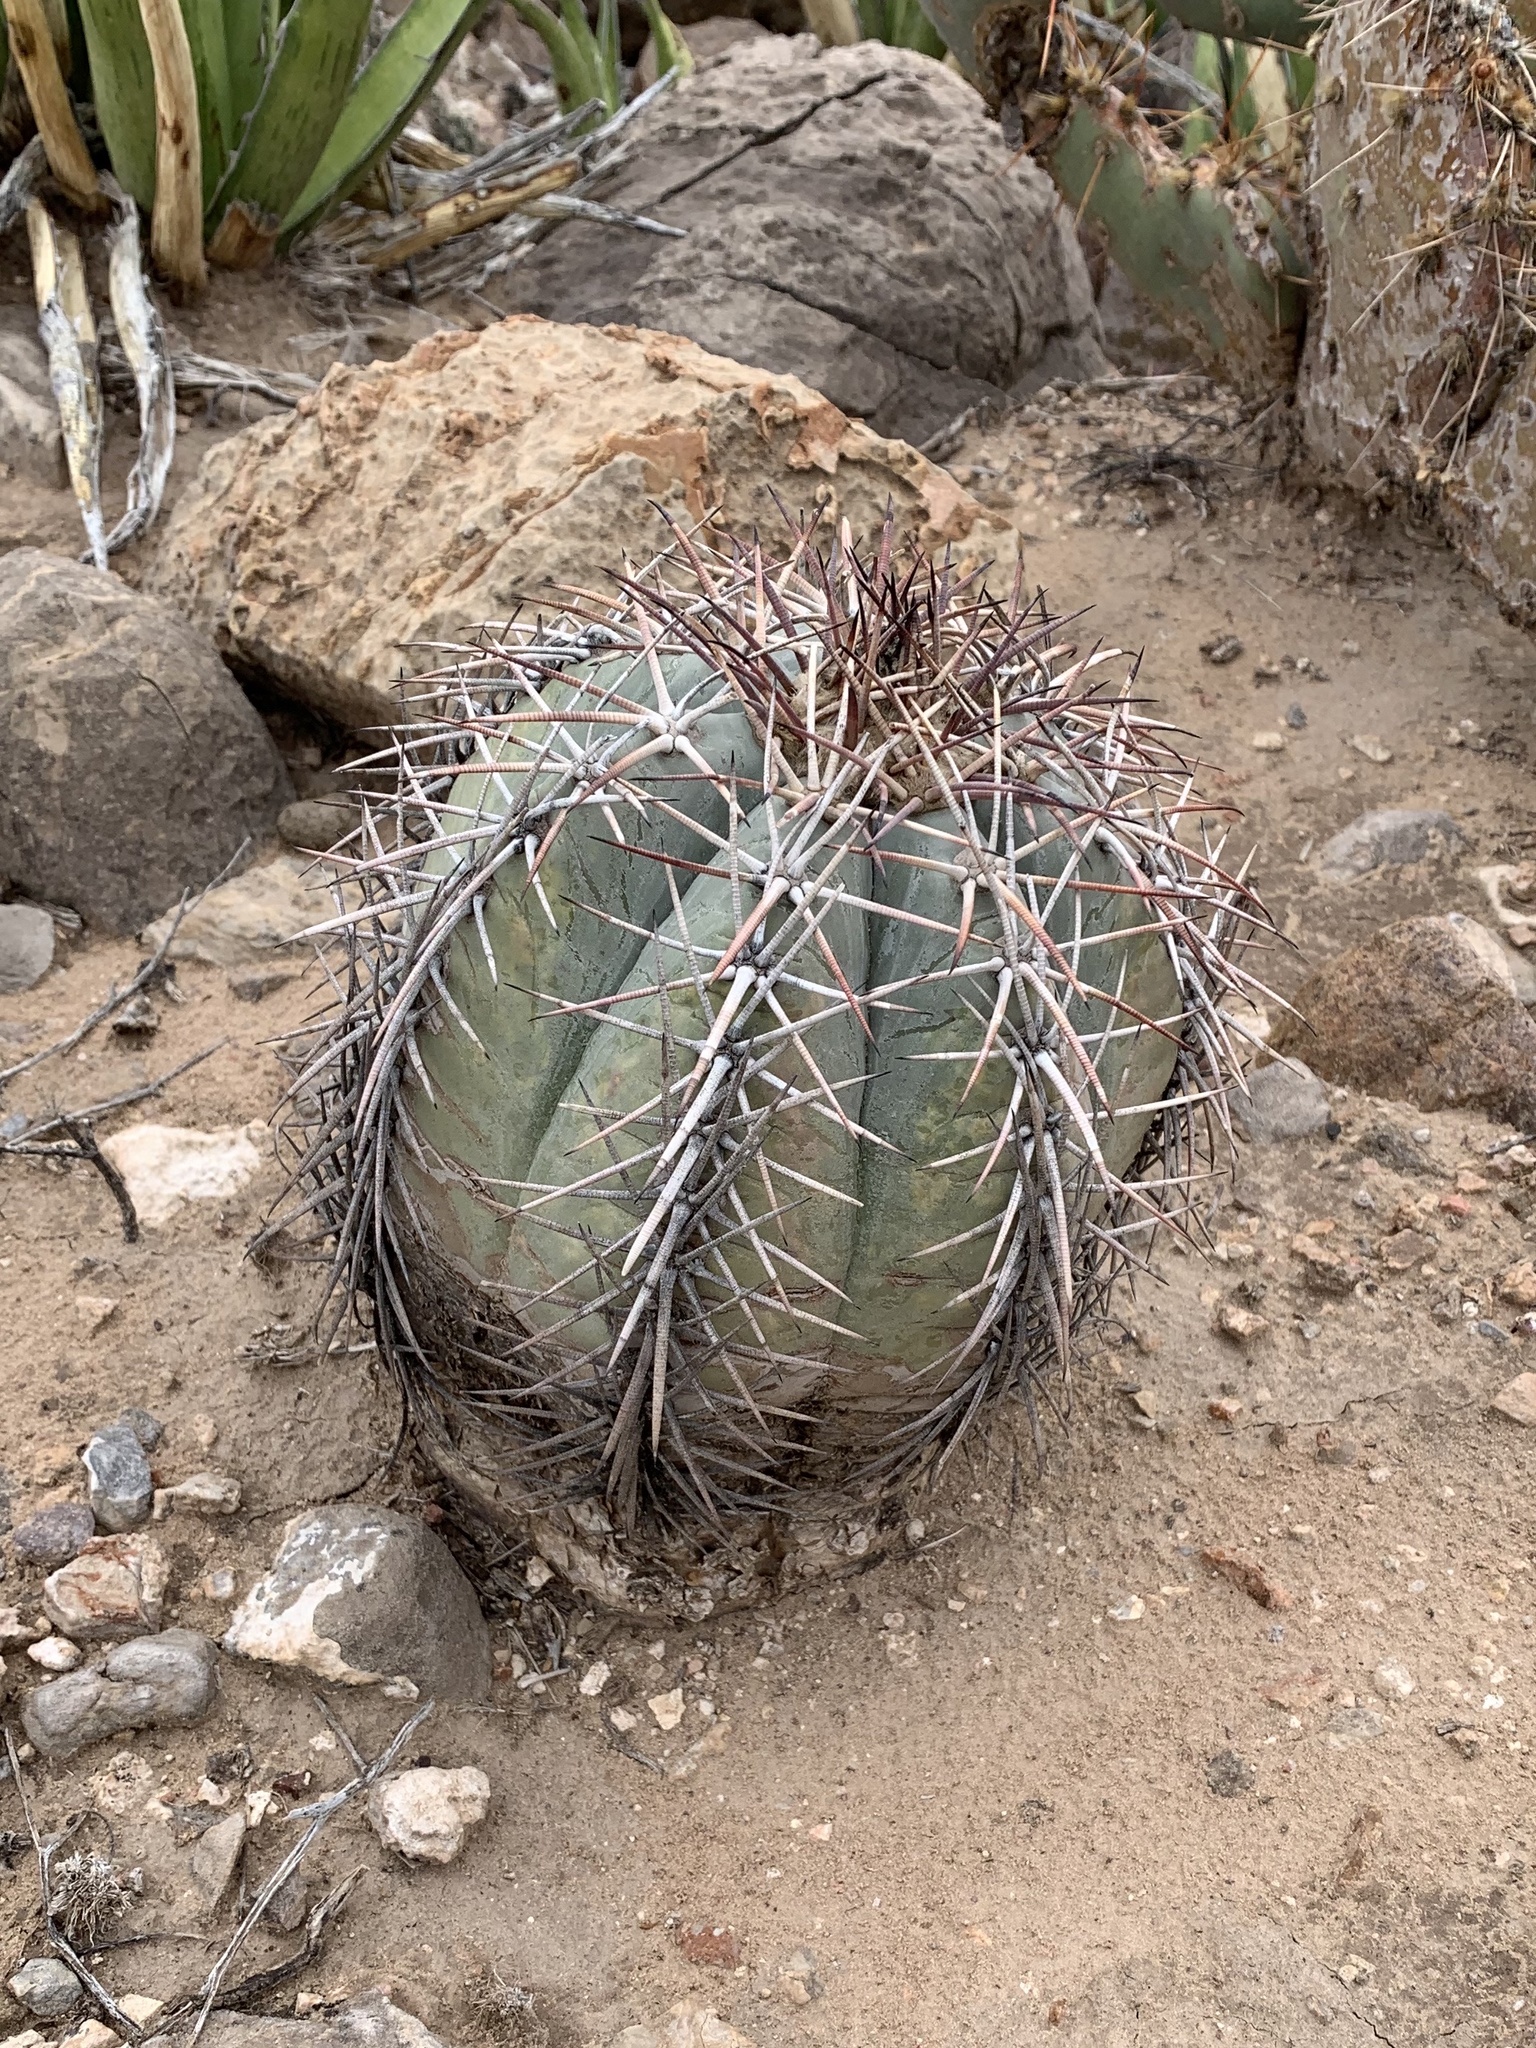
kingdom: Plantae
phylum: Tracheophyta
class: Magnoliopsida
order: Caryophyllales
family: Cactaceae
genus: Echinocactus
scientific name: Echinocactus horizonthalonius
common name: Devilshead
